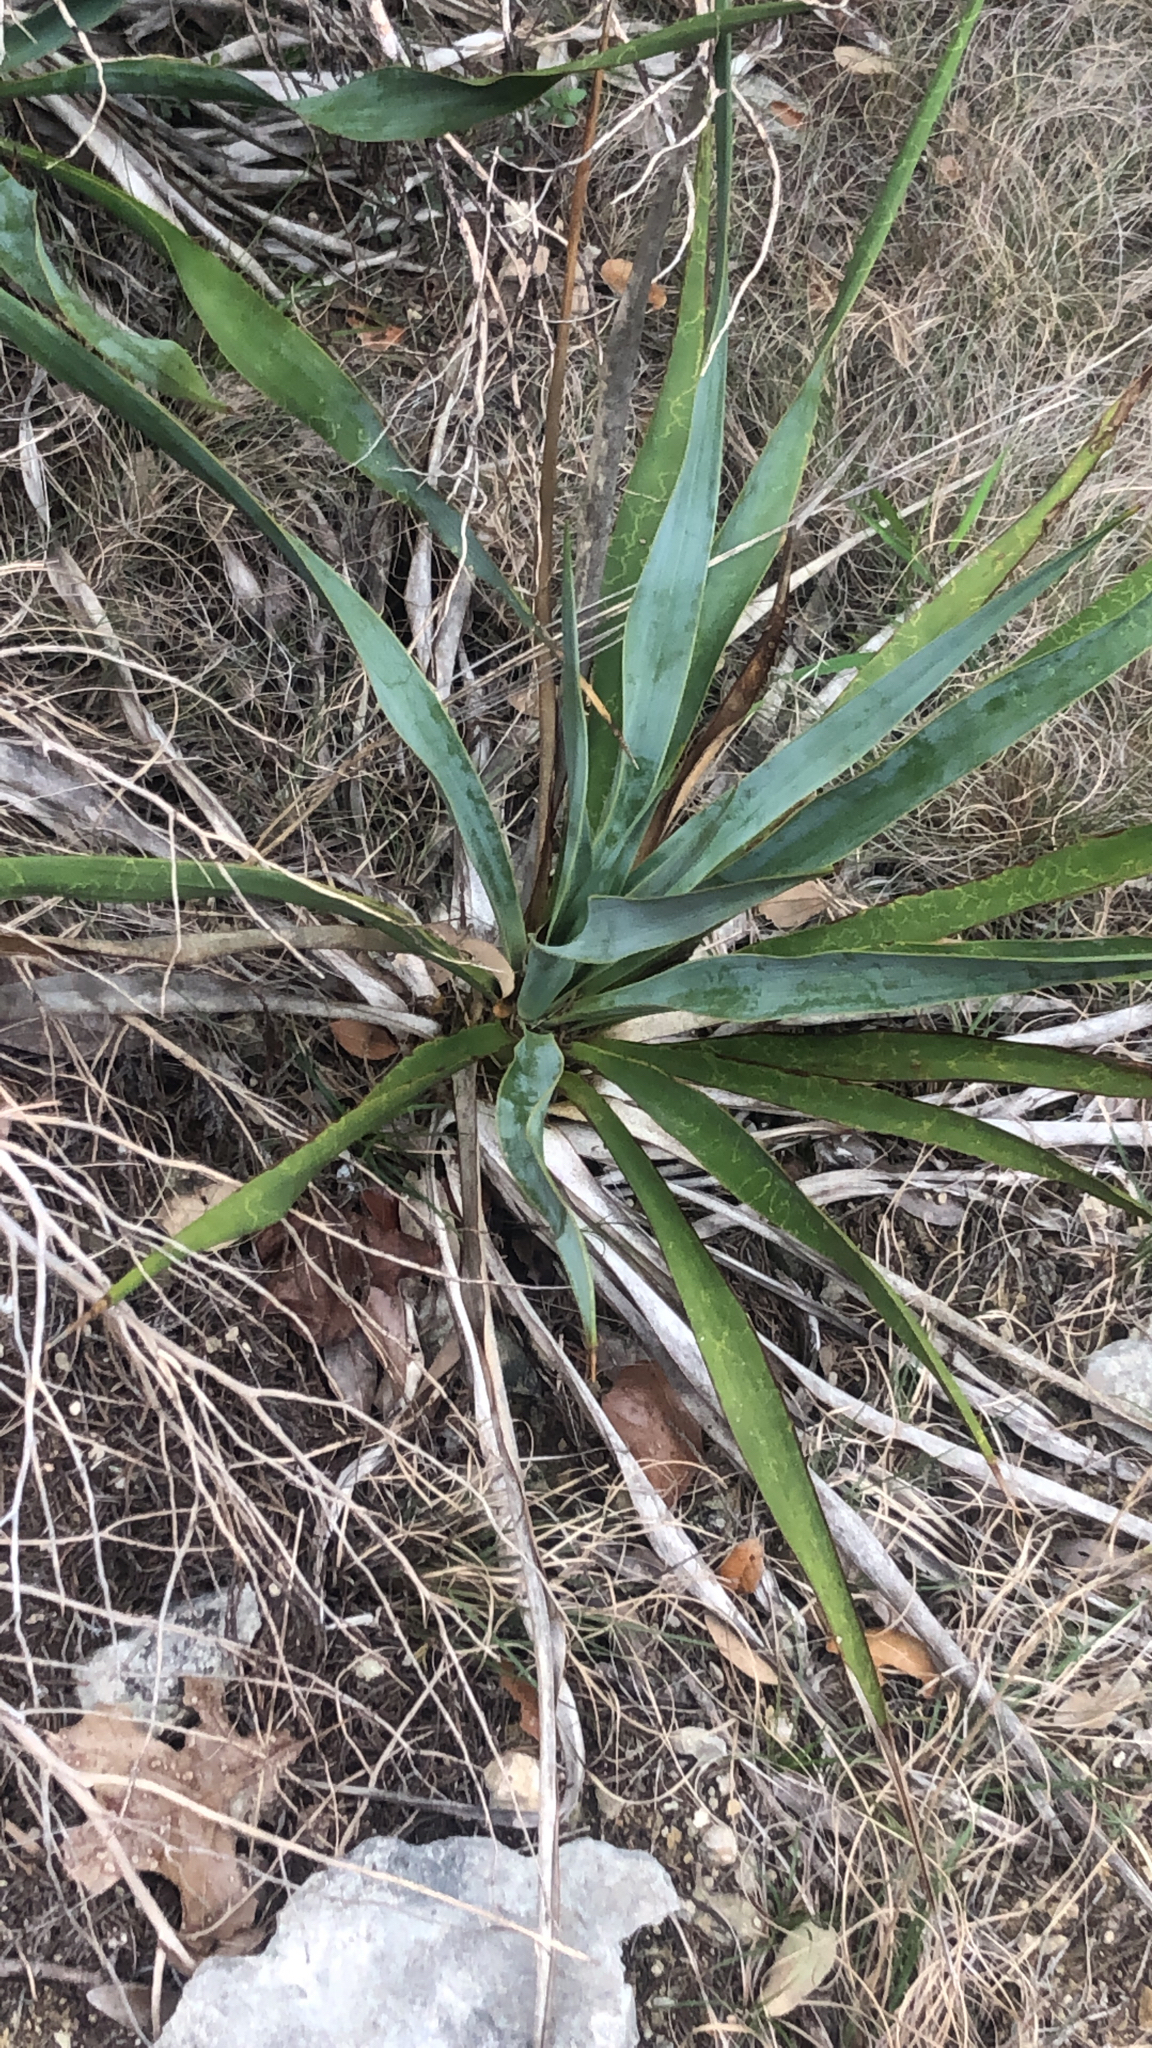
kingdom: Plantae
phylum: Tracheophyta
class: Liliopsida
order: Asparagales
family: Asparagaceae
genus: Yucca
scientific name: Yucca rupicola
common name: Twisted-leaf spanish-dagger
